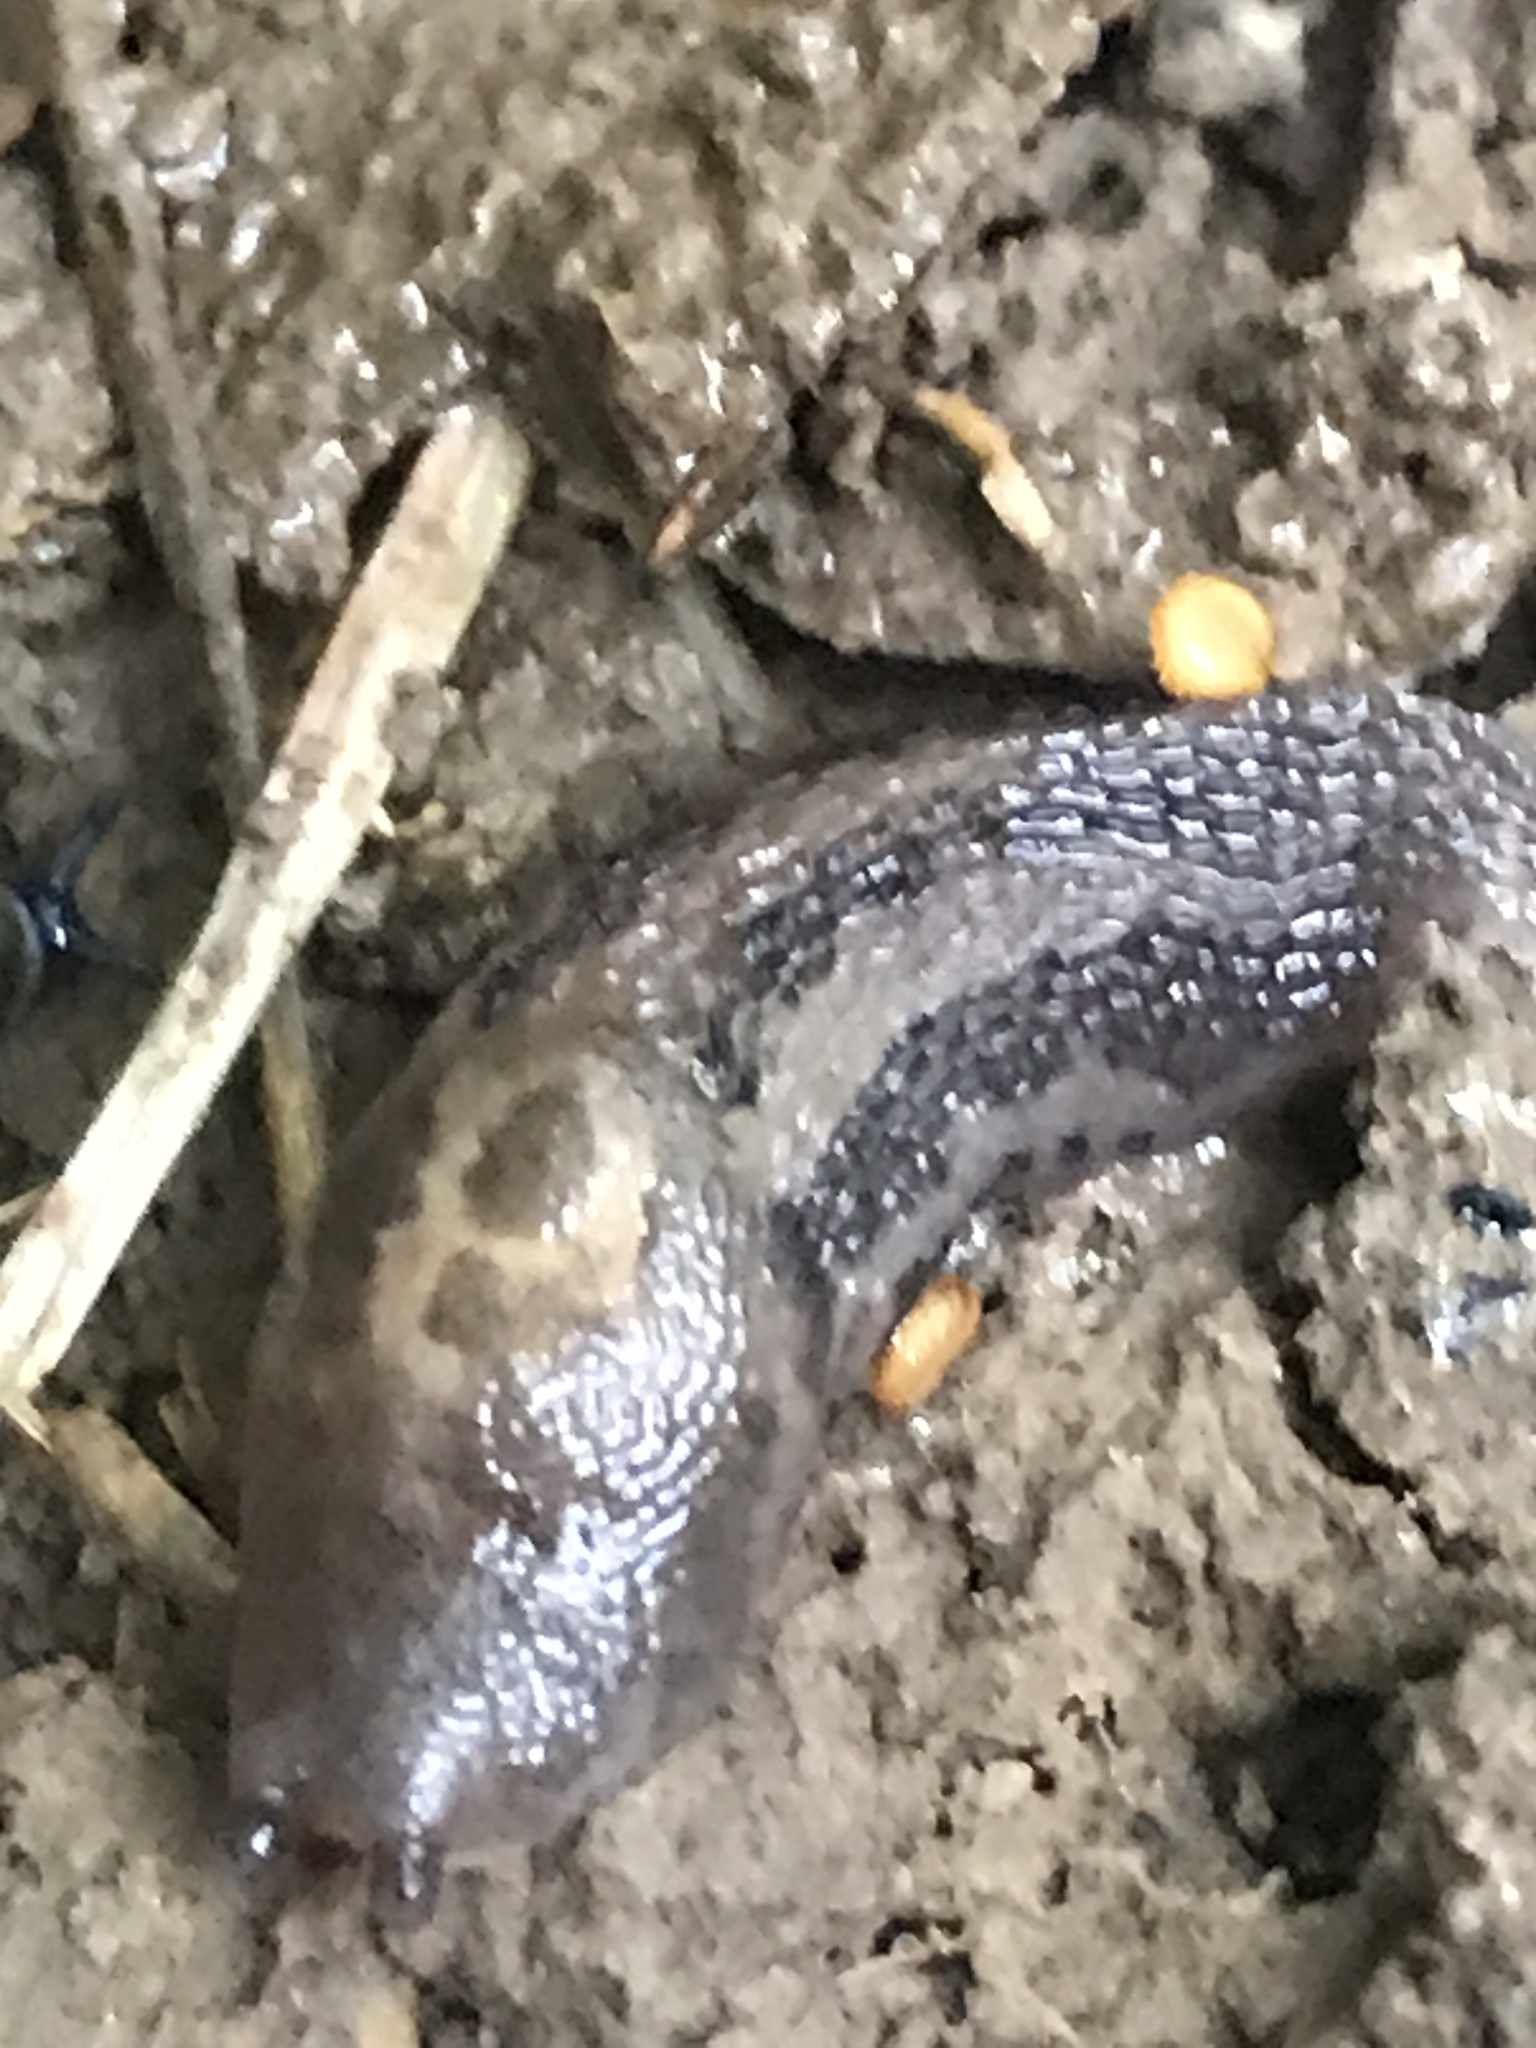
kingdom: Animalia
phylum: Mollusca
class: Gastropoda
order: Stylommatophora
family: Limacidae
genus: Limax
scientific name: Limax maximus
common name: Great grey slug
